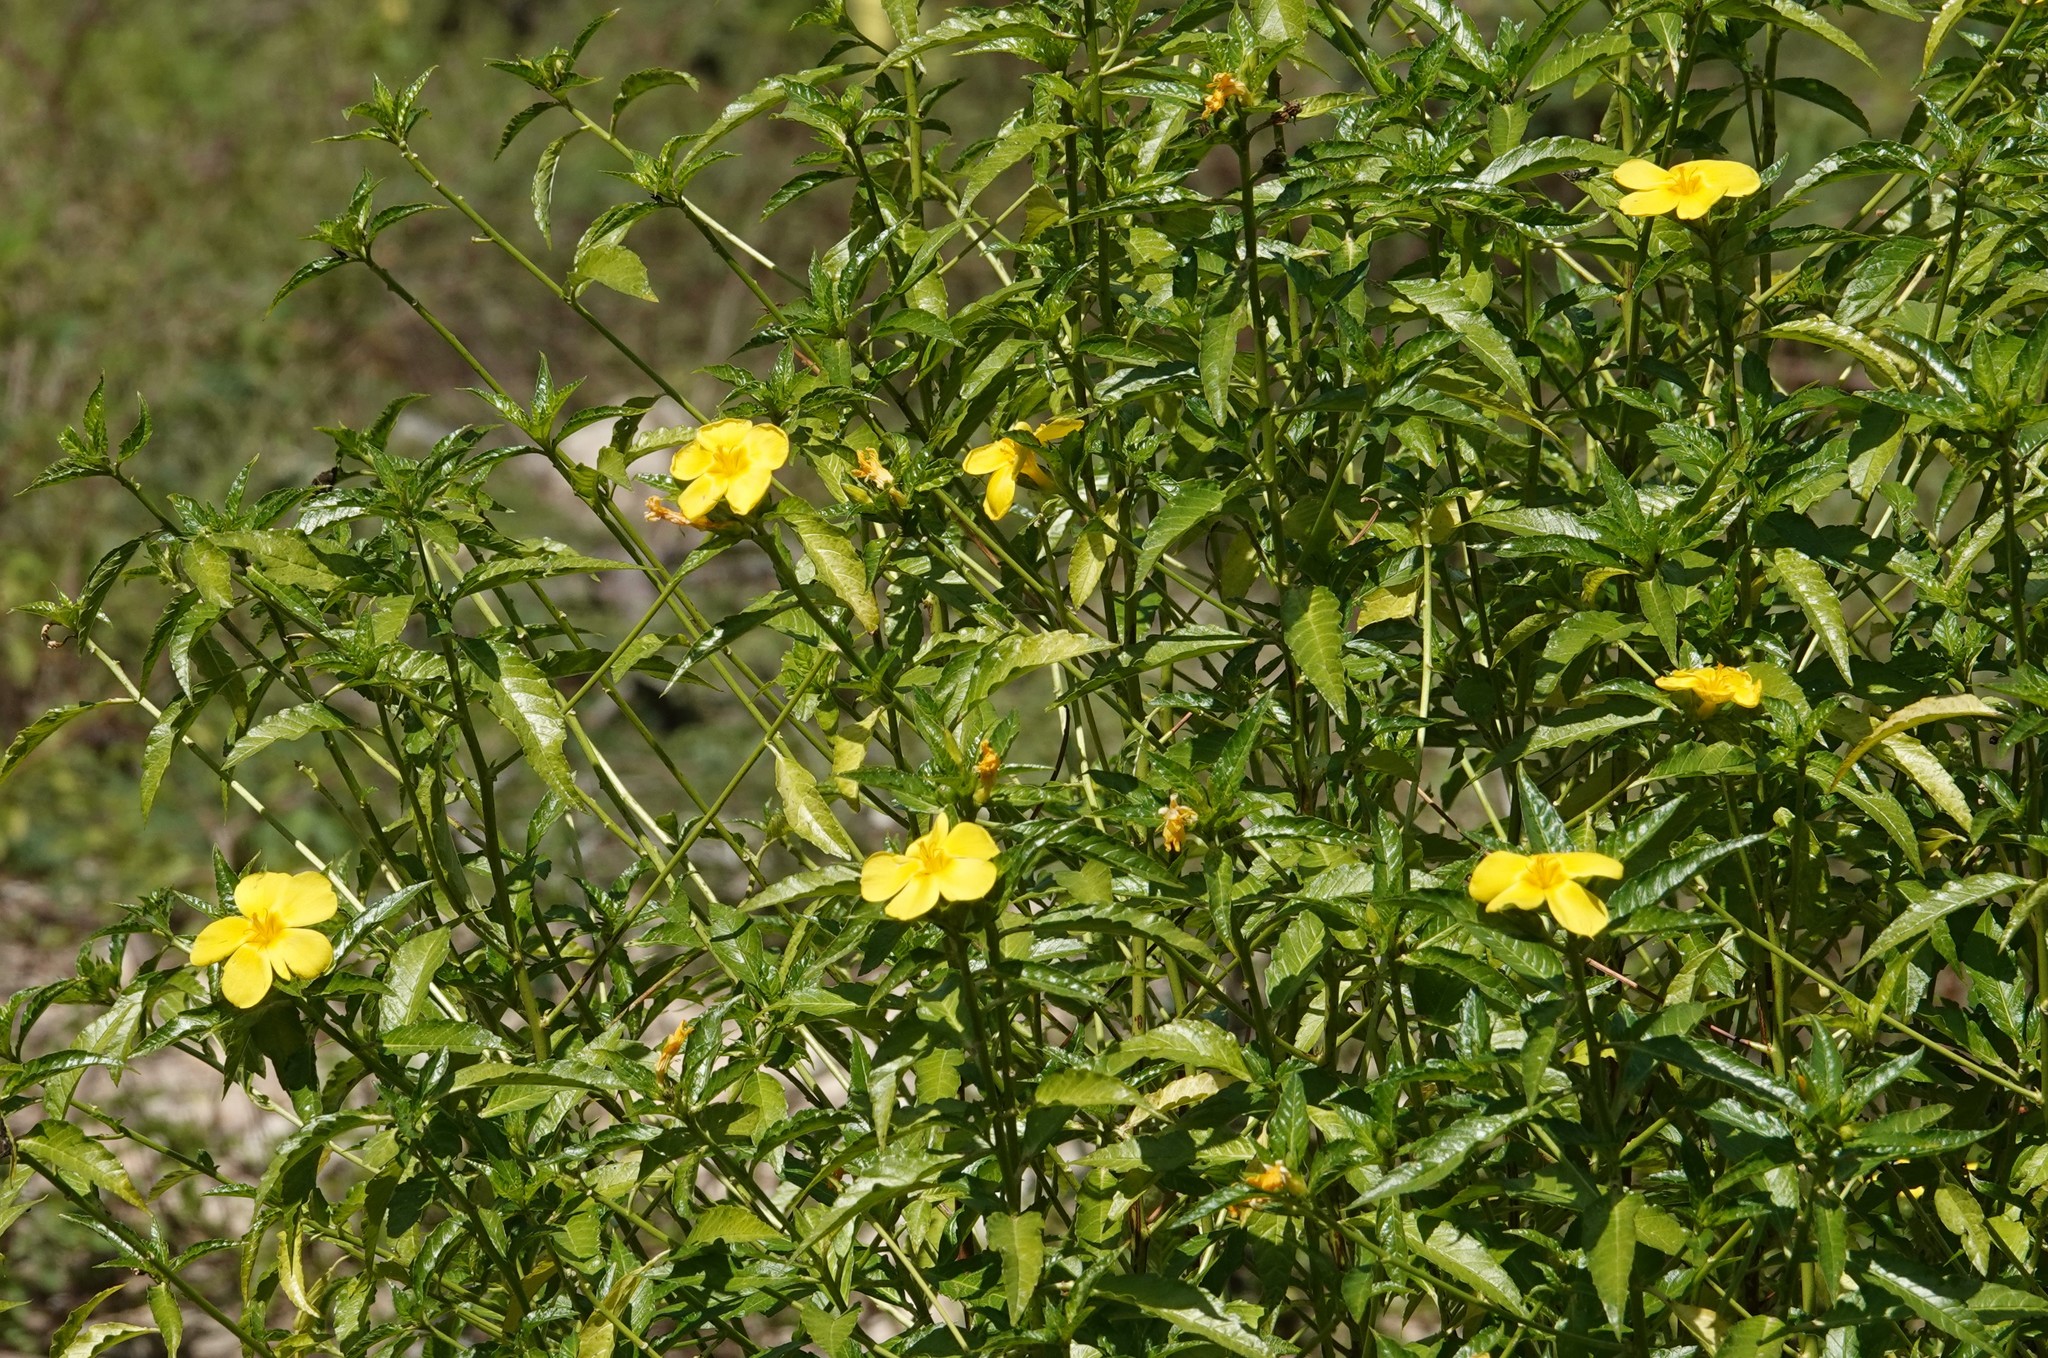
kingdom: Plantae
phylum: Tracheophyta
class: Magnoliopsida
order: Malpighiales
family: Turneraceae
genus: Turnera
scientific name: Turnera ulmifolia
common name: Ramgoat dashalong
